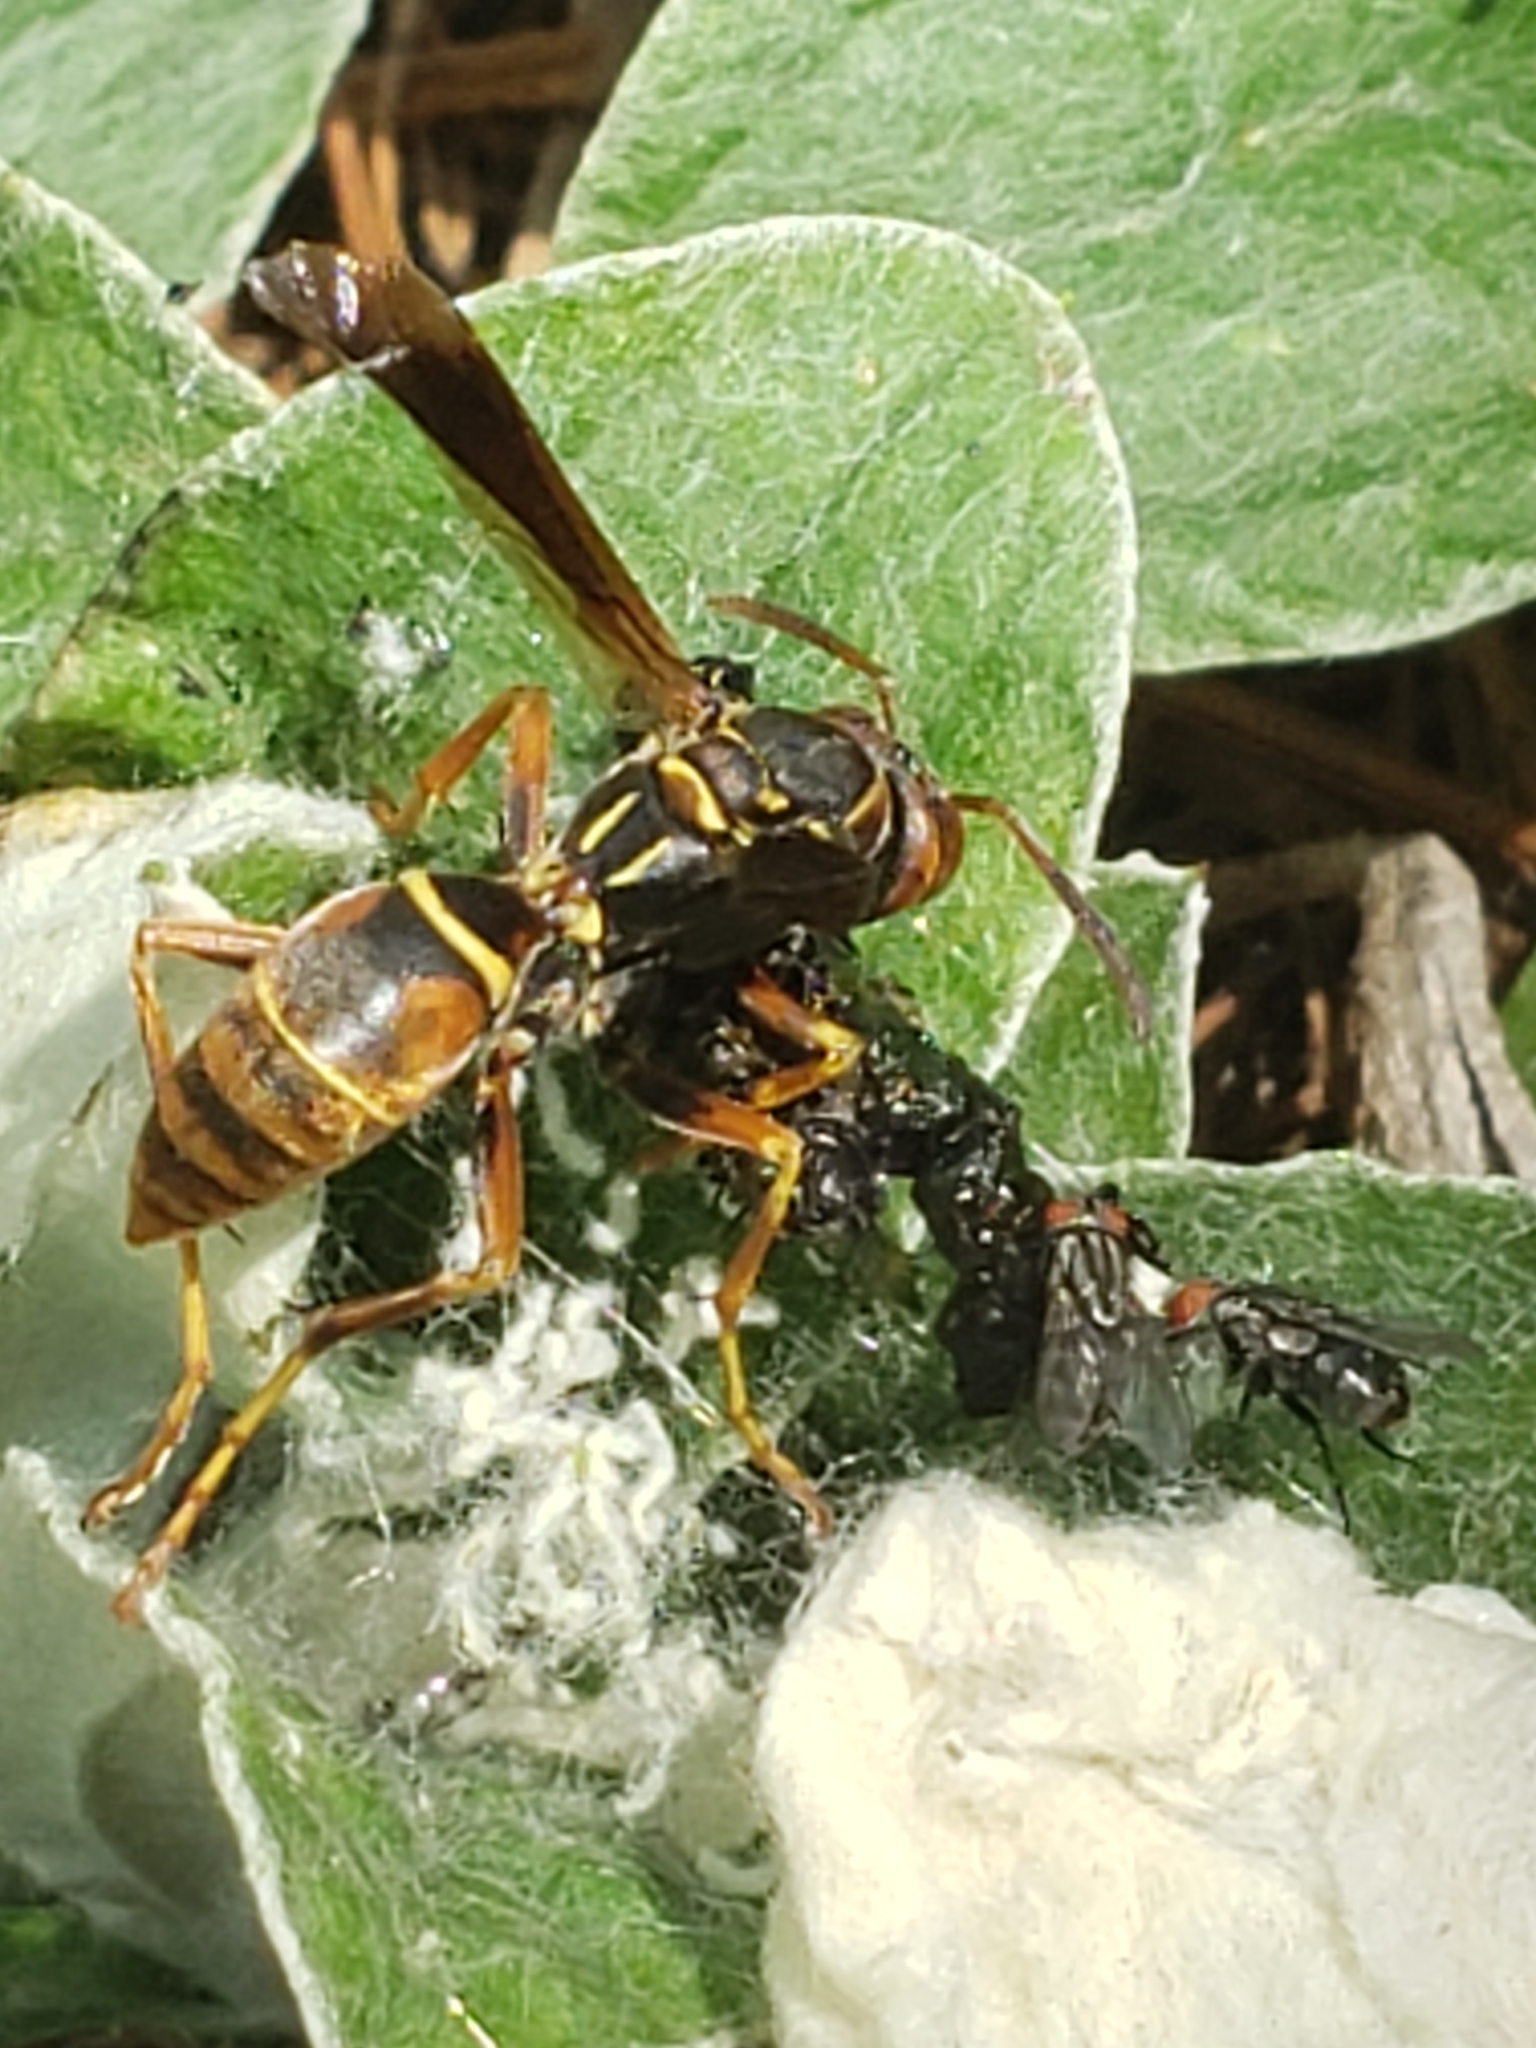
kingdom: Animalia
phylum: Arthropoda
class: Insecta
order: Hymenoptera
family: Eumenidae
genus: Polistes
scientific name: Polistes fuscatus
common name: Dark paper wasp
